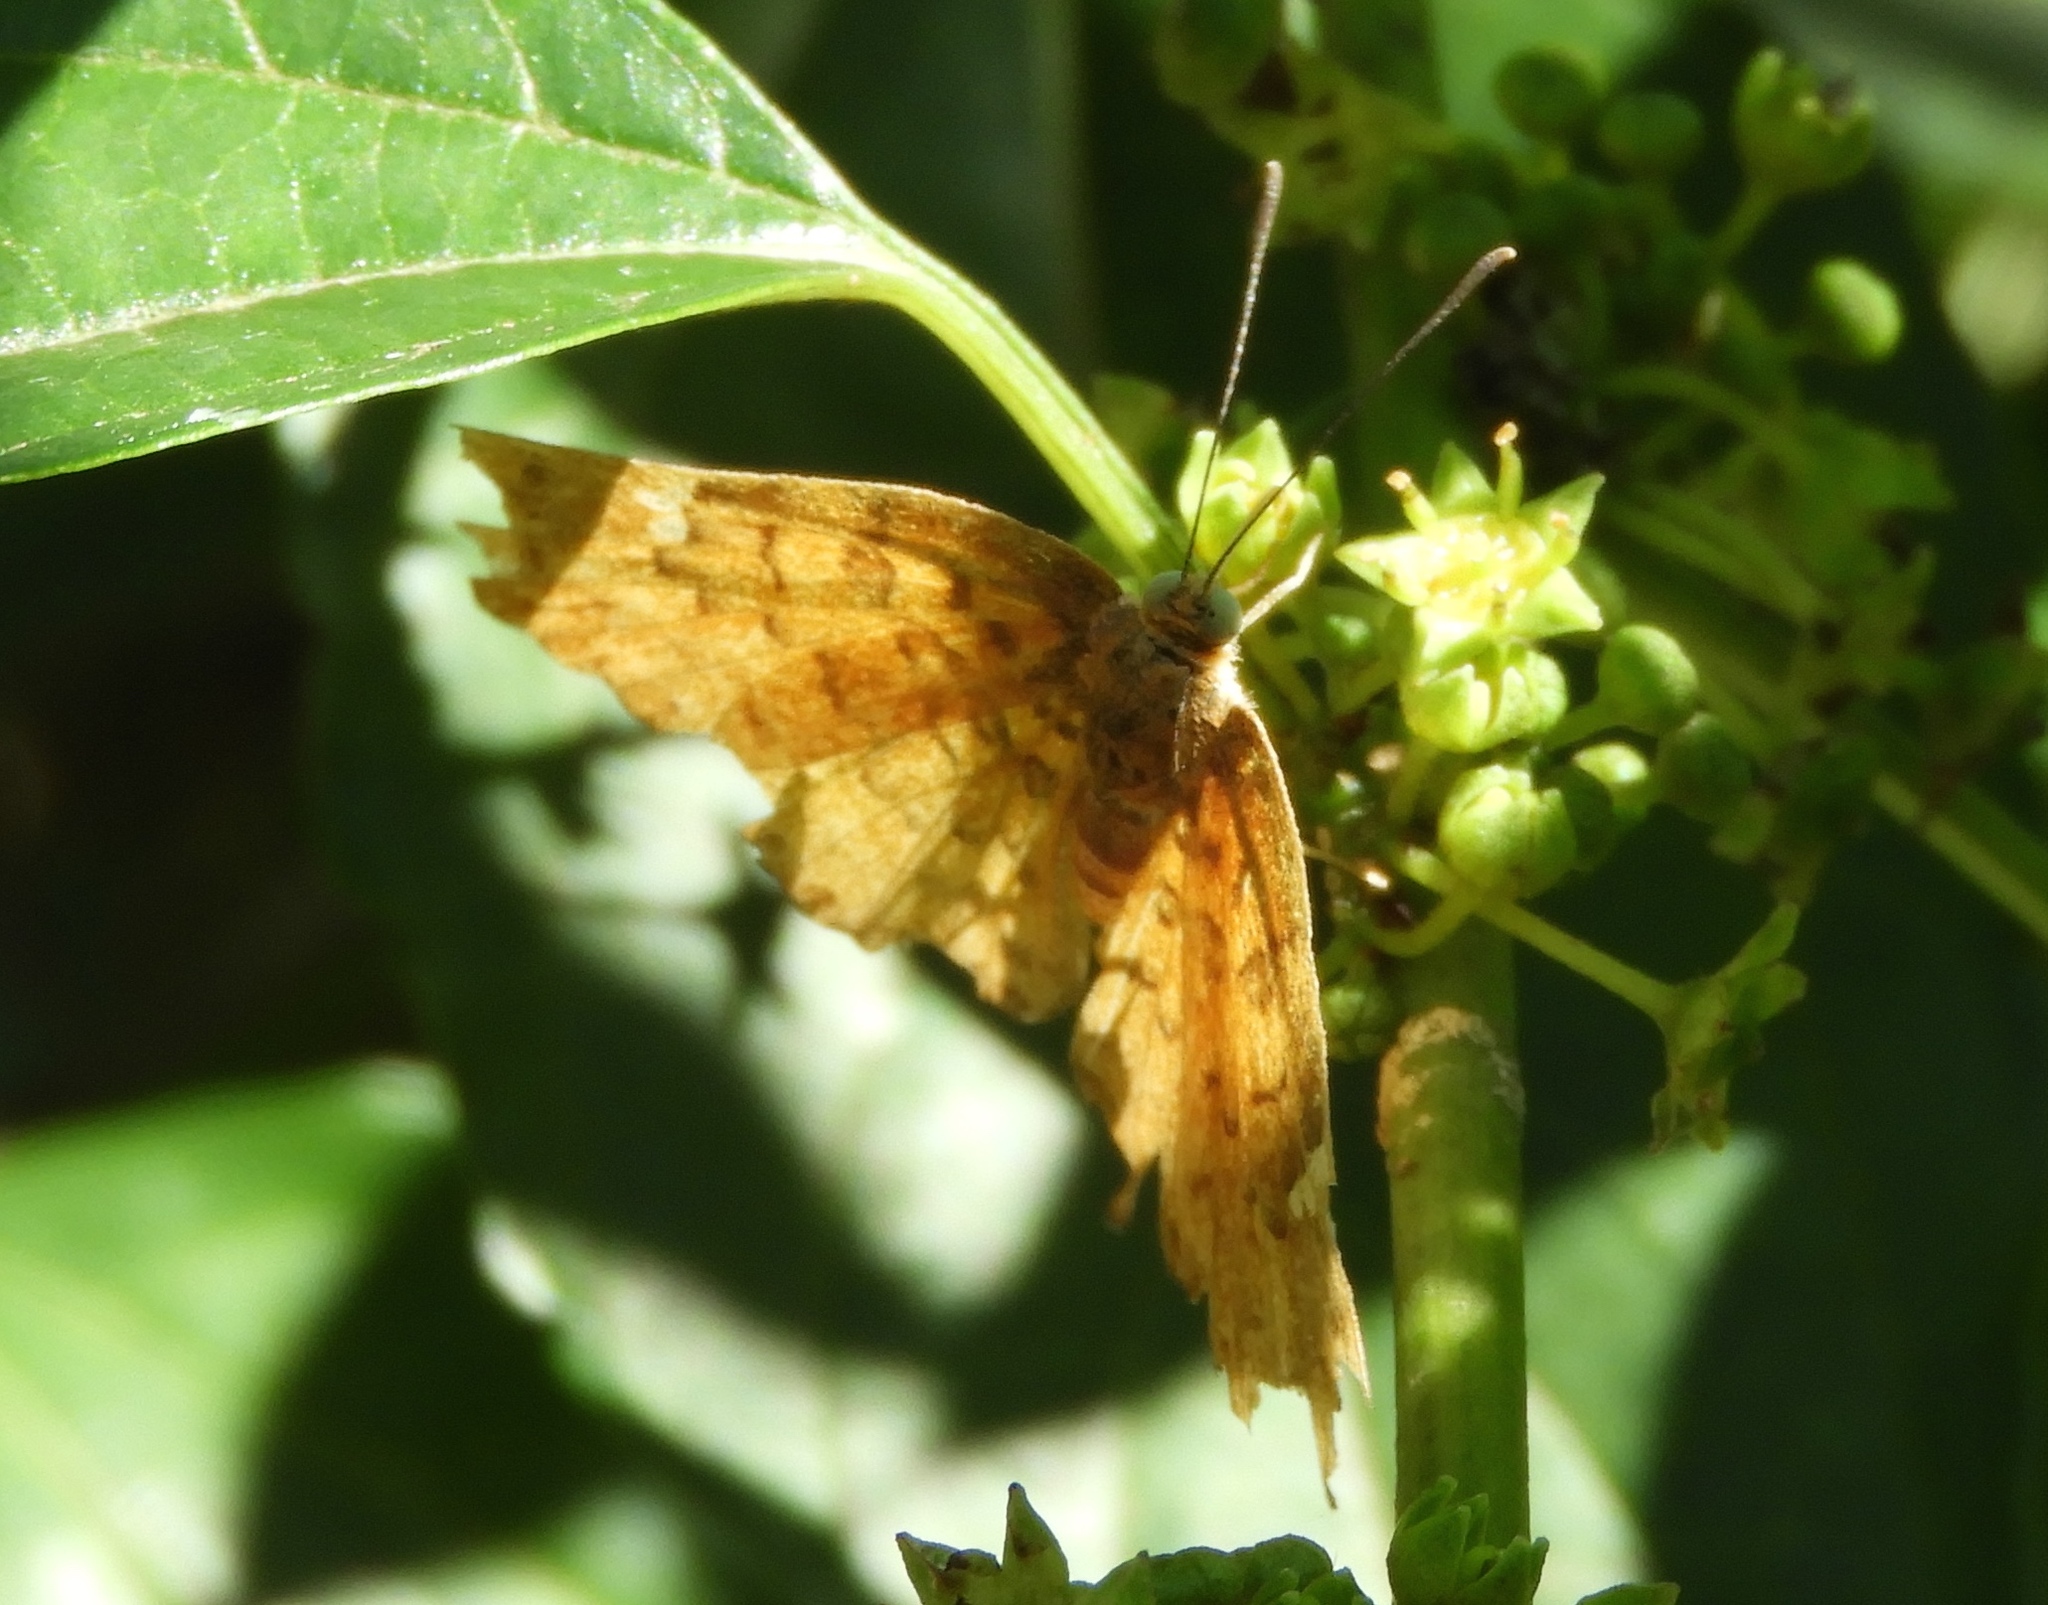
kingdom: Animalia
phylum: Arthropoda
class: Insecta
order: Lepidoptera
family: Lycaenidae
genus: Emesis
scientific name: Emesis
